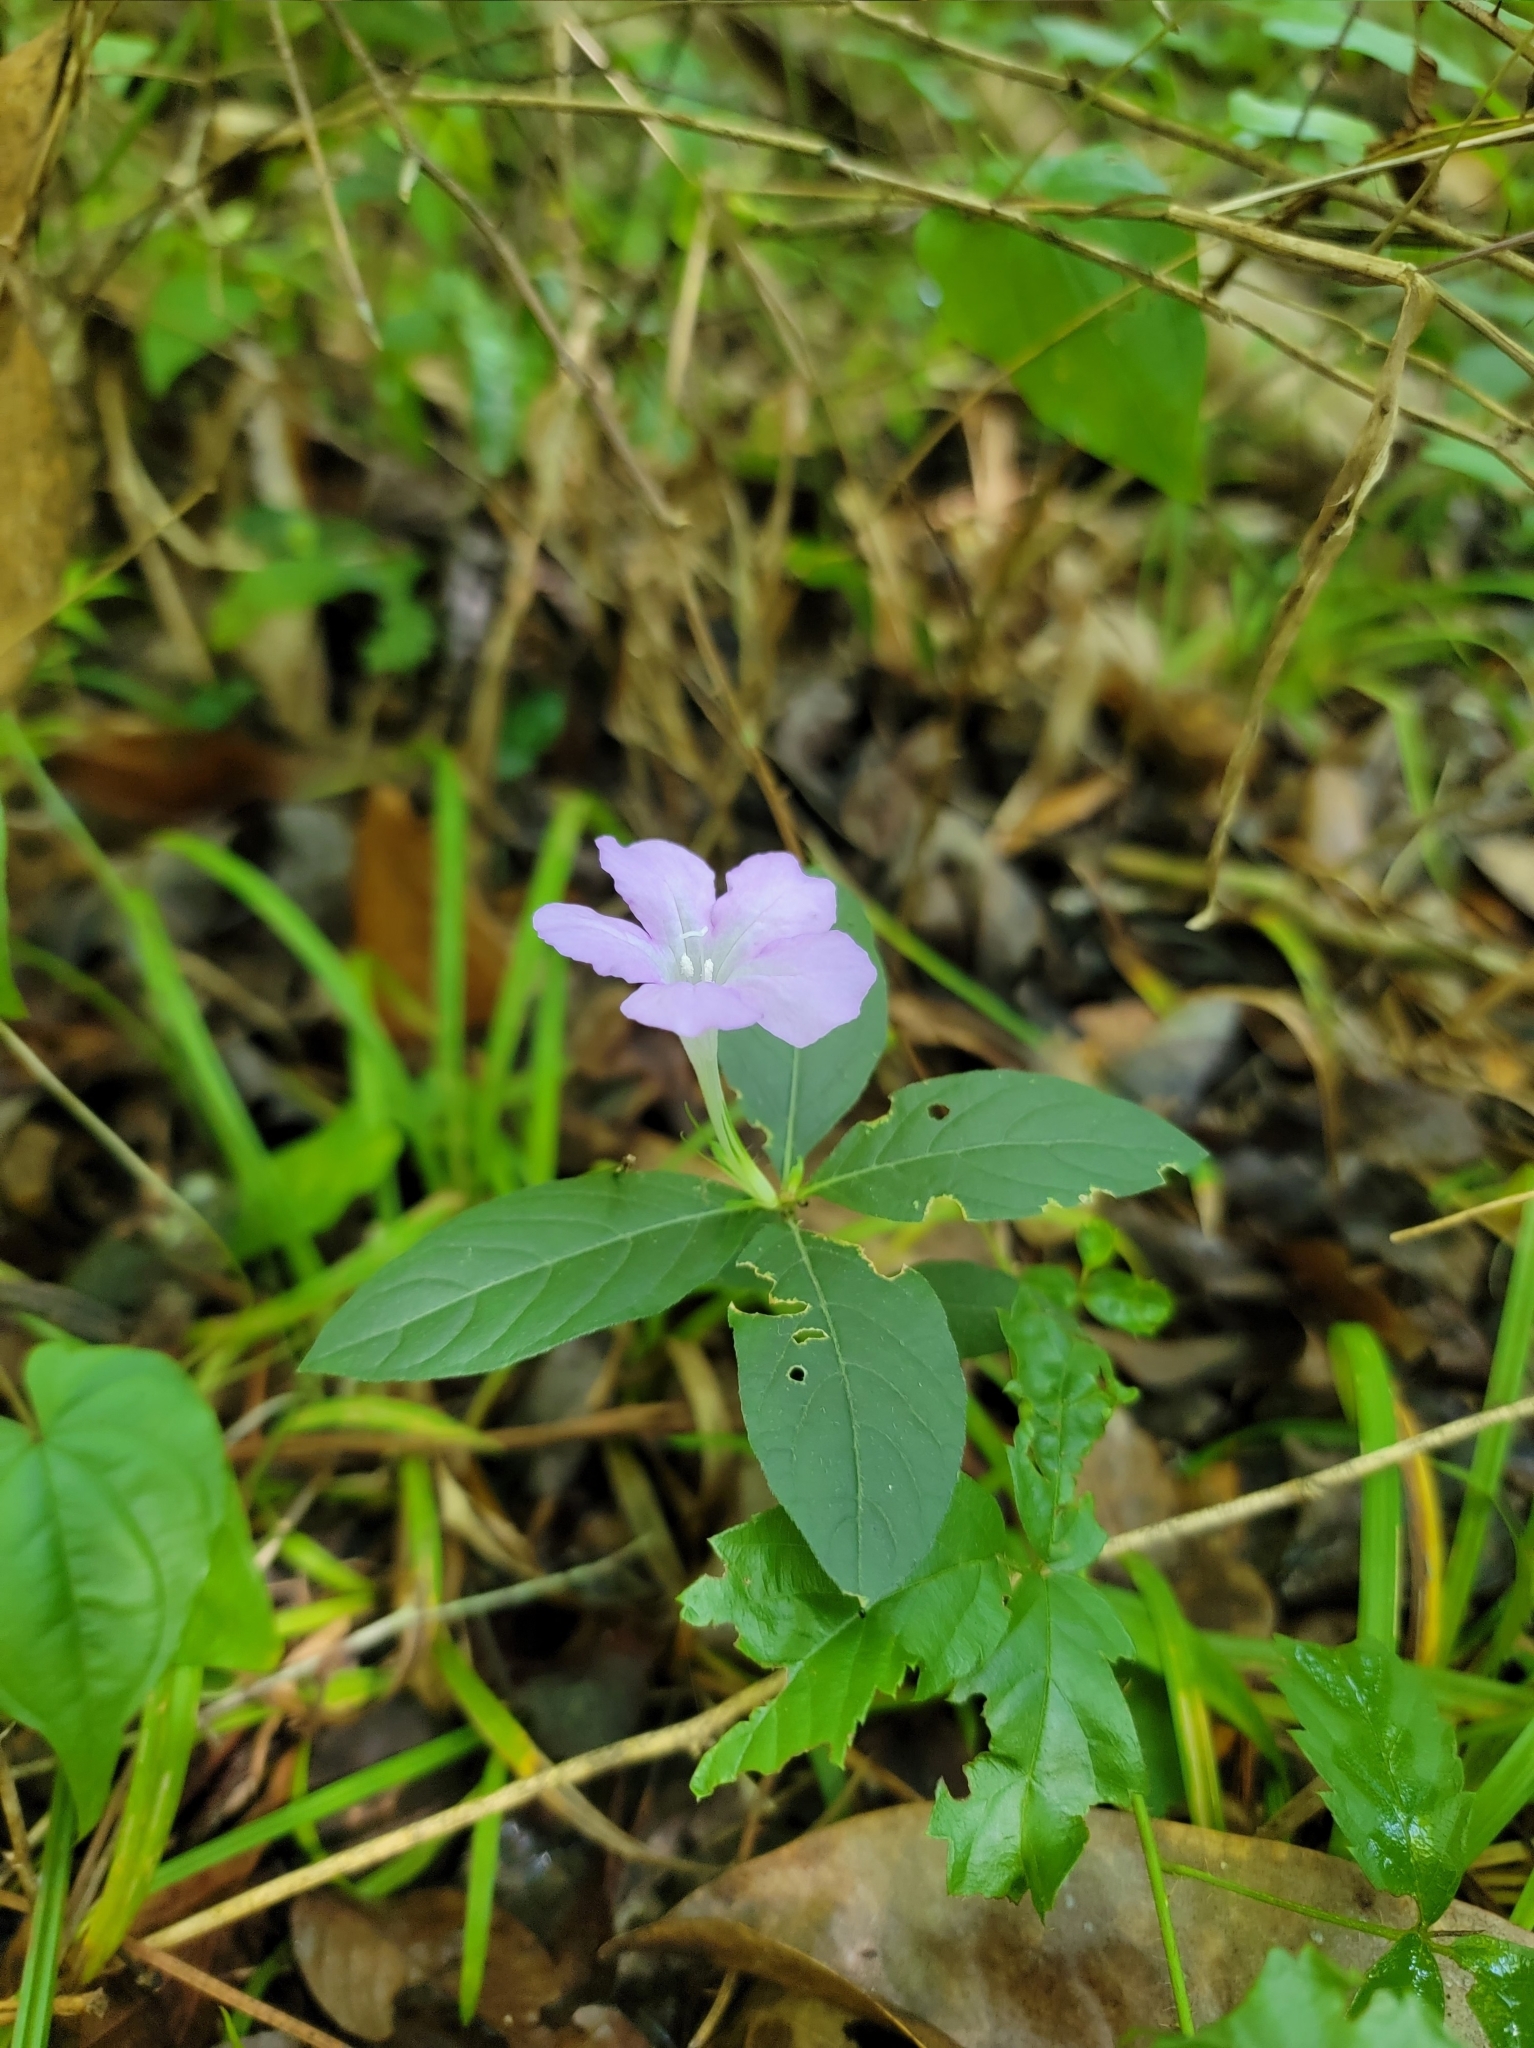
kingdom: Plantae
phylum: Tracheophyta
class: Magnoliopsida
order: Lamiales
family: Acanthaceae
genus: Ruellia
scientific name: Ruellia caroliniensis
